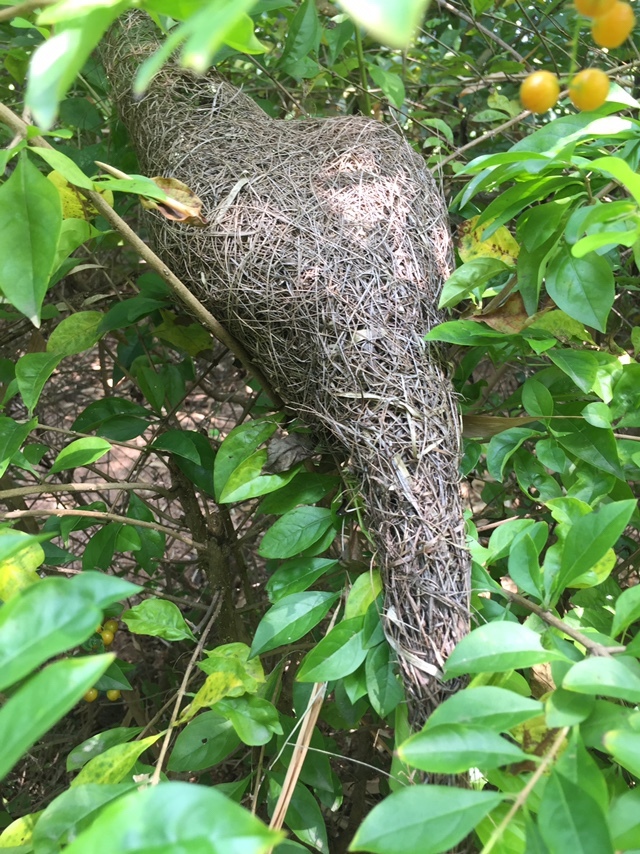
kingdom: Animalia
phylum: Chordata
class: Aves
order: Passeriformes
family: Ploceidae
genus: Ploceus
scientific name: Ploceus philippinus
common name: Baya weaver
